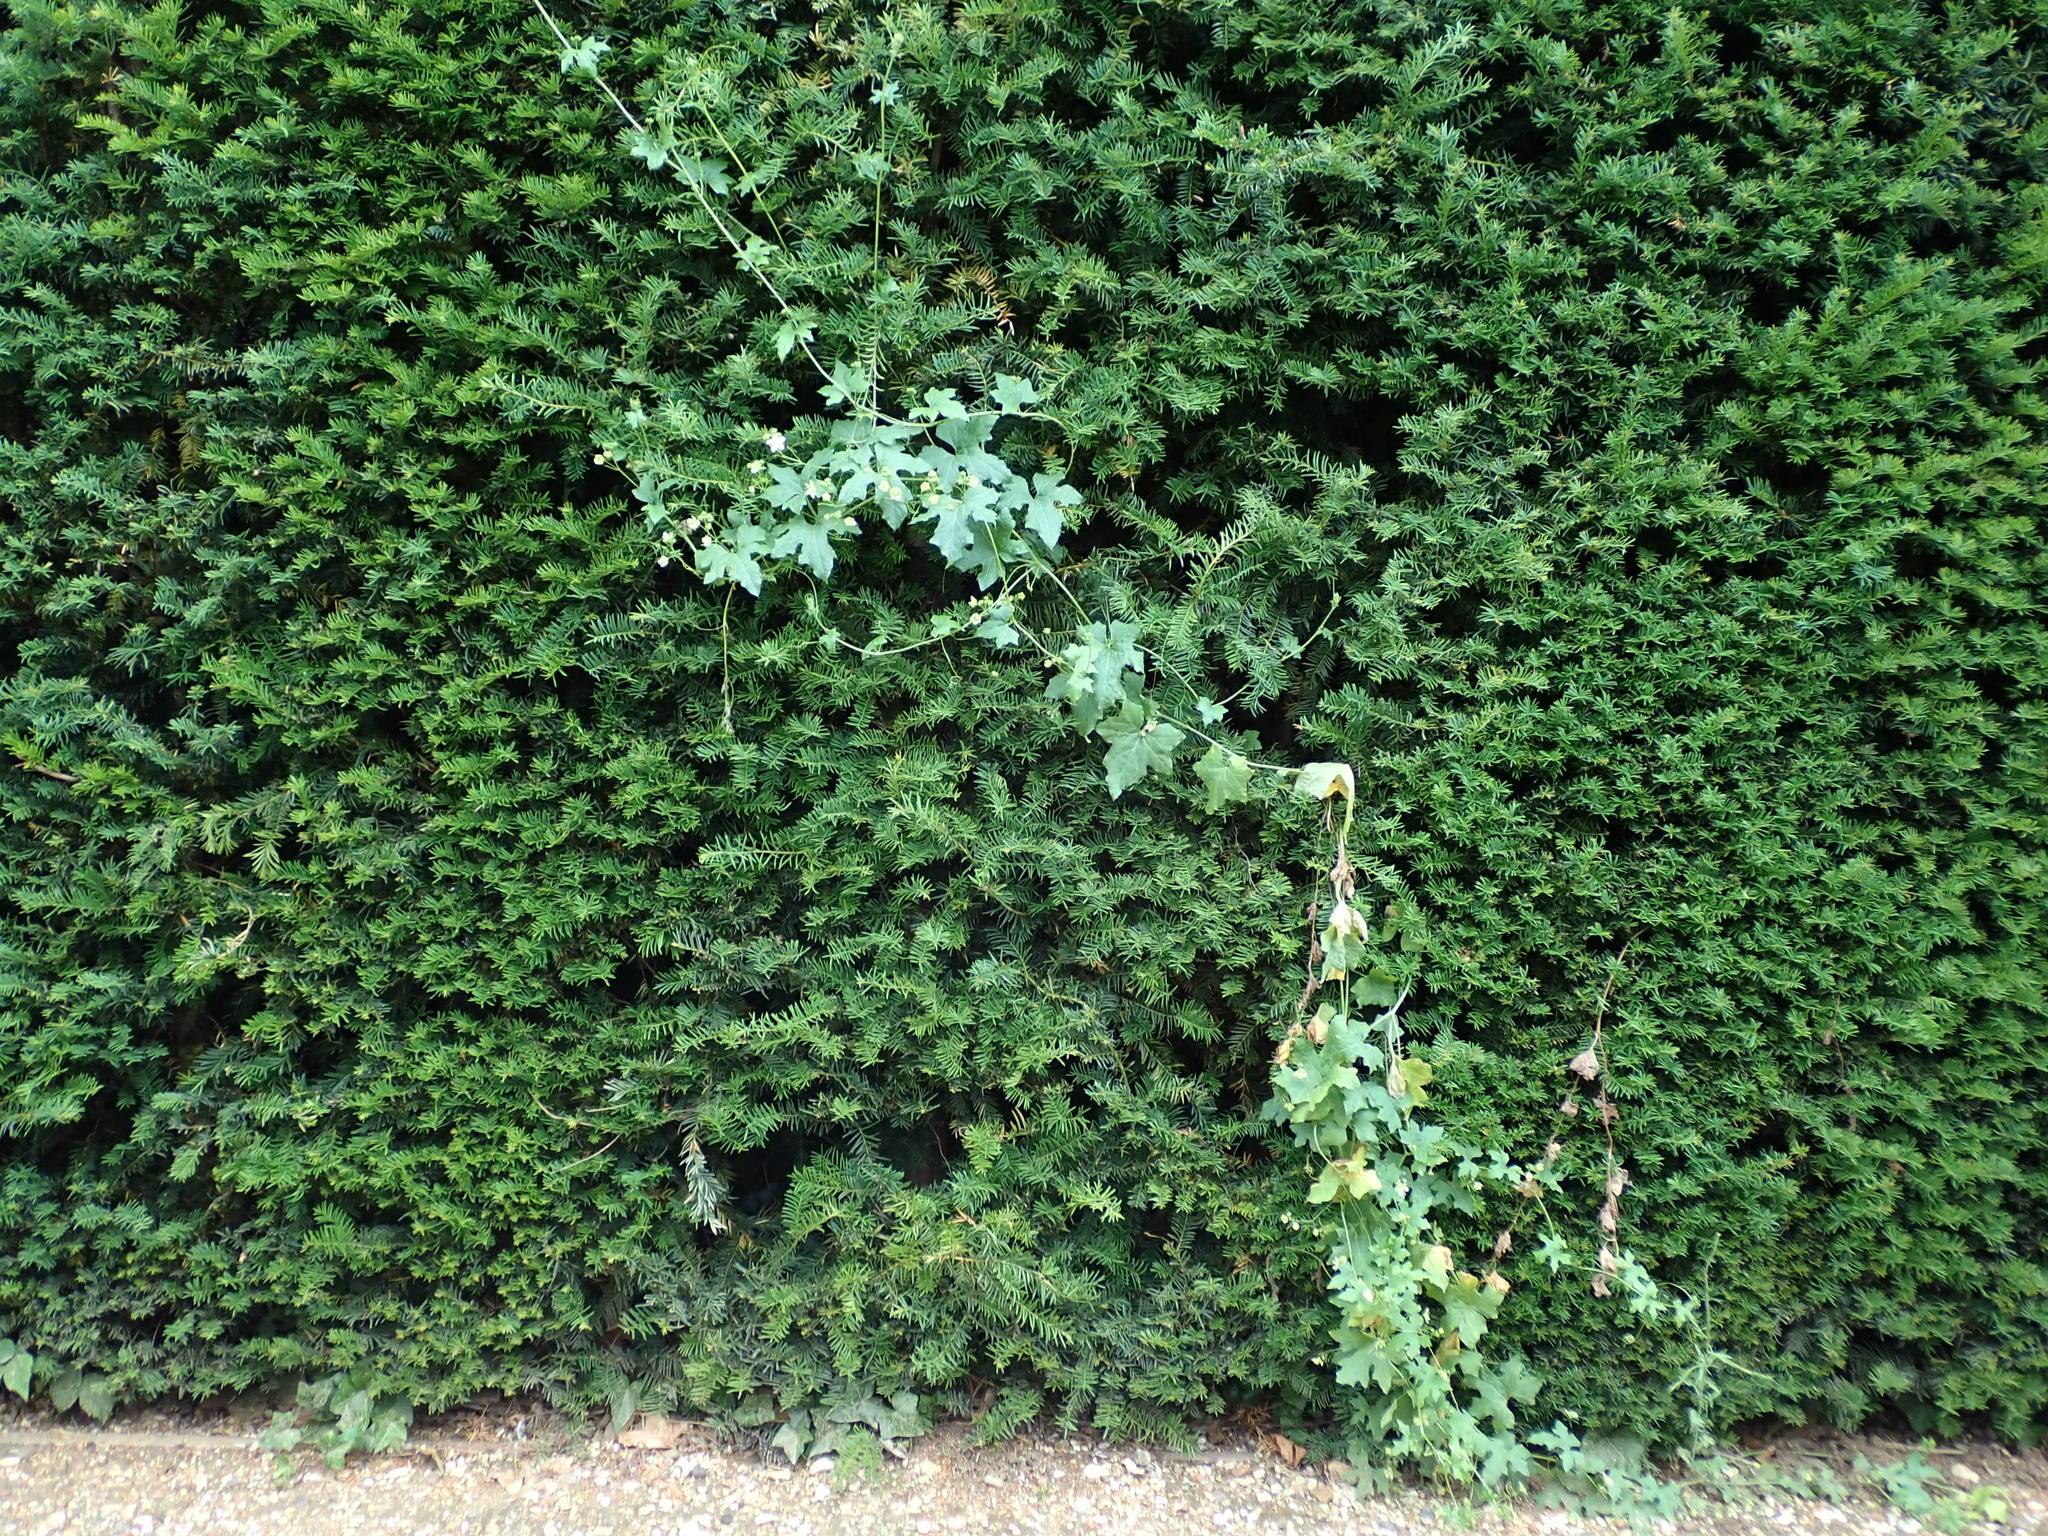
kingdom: Plantae
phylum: Tracheophyta
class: Magnoliopsida
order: Cucurbitales
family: Cucurbitaceae
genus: Bryonia
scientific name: Bryonia cretica
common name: Cretan bryony
